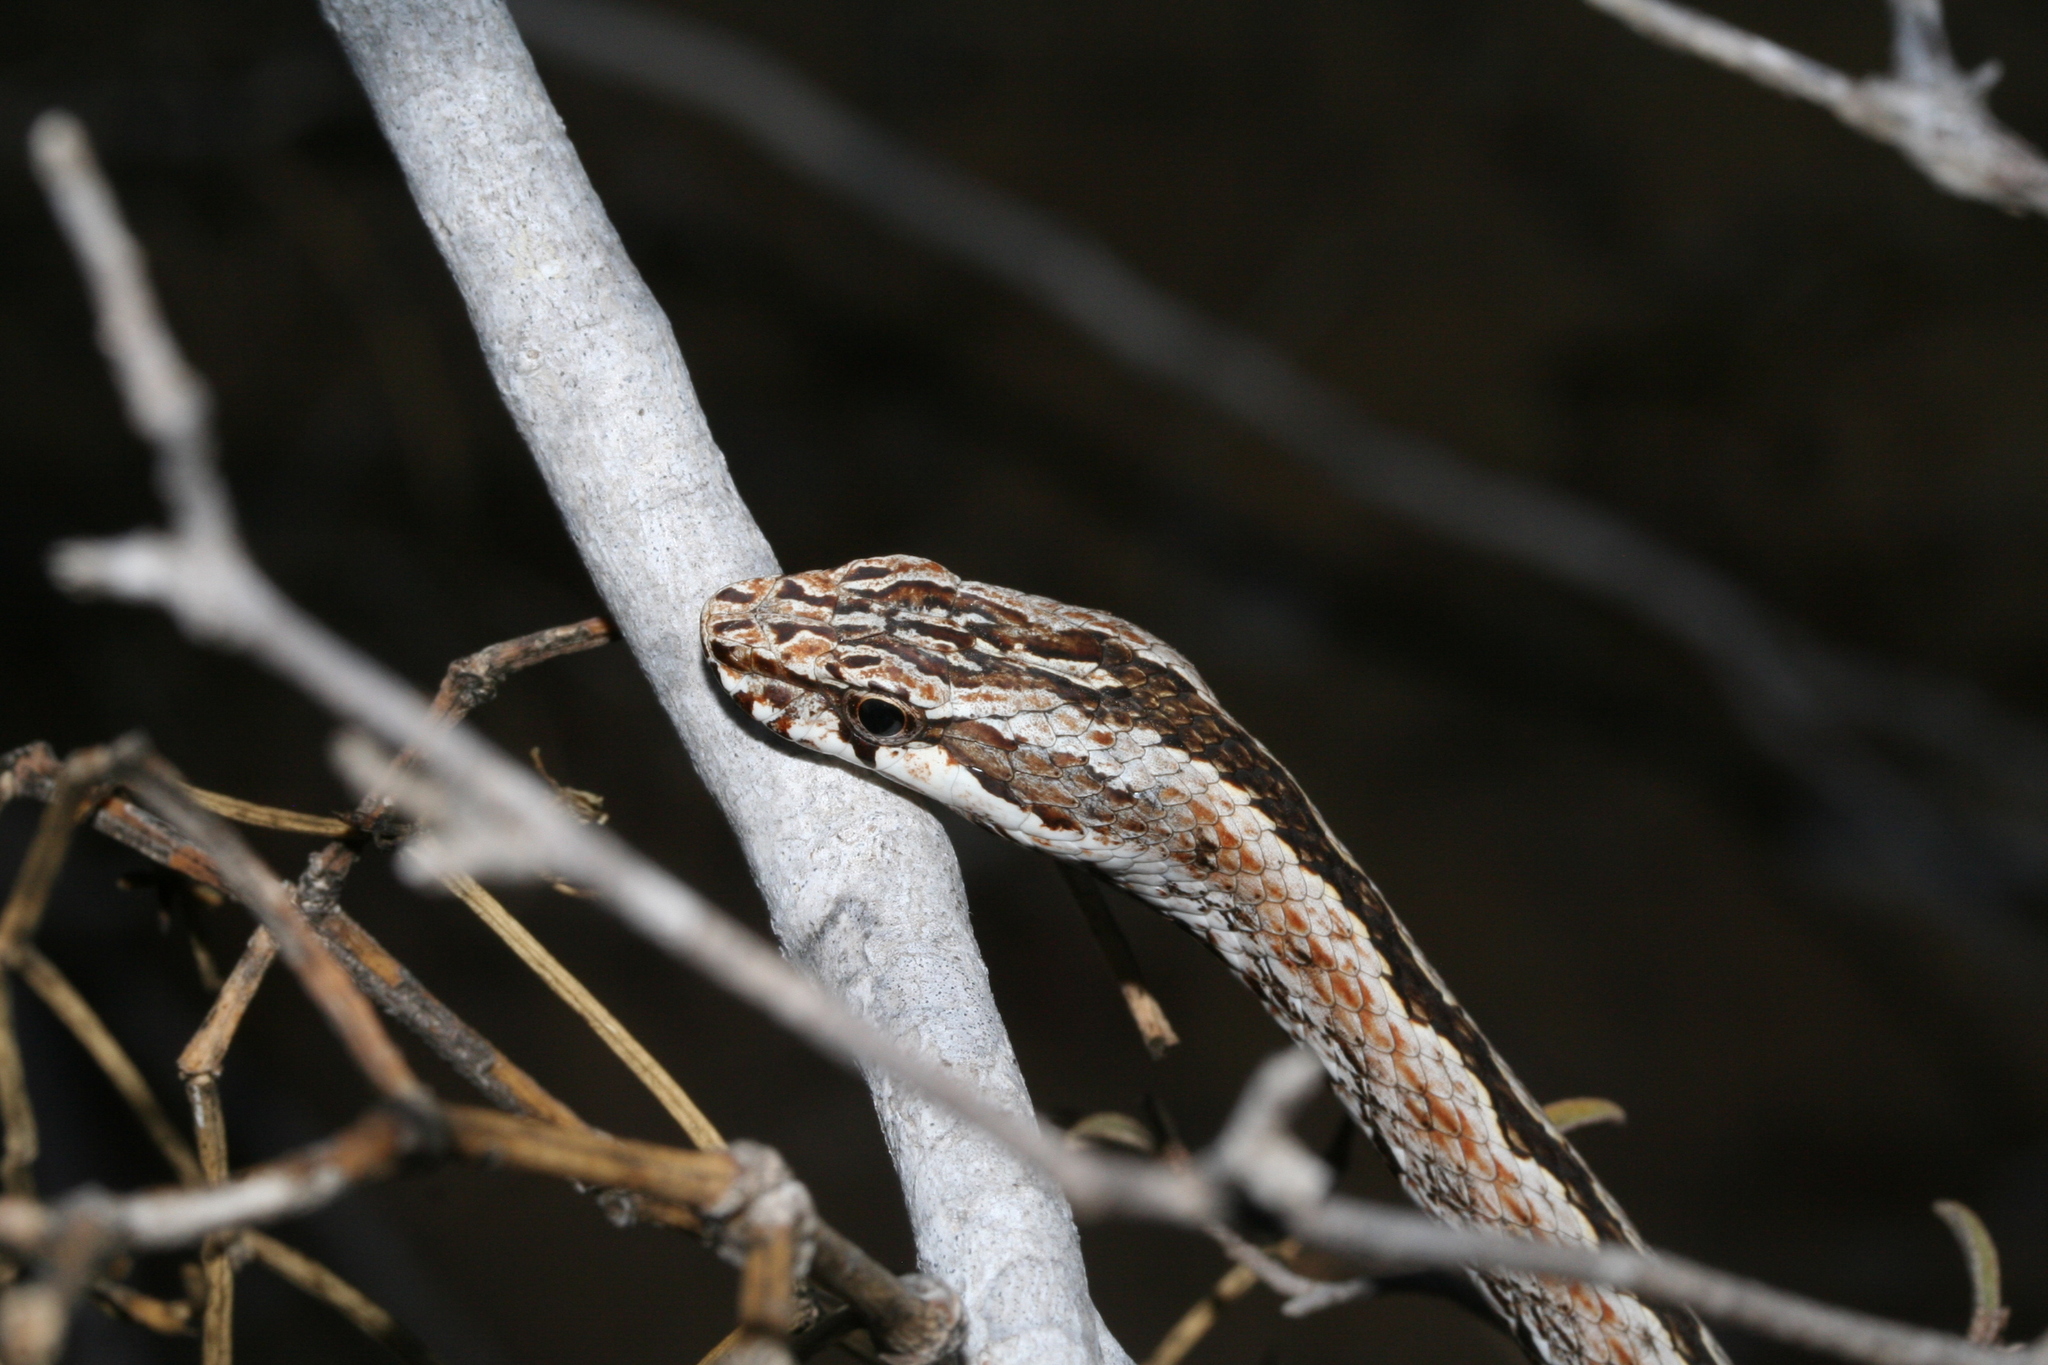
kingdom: Animalia
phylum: Chordata
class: Squamata
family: Psammophiidae
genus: Mimophis
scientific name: Mimophis mahfalensis
